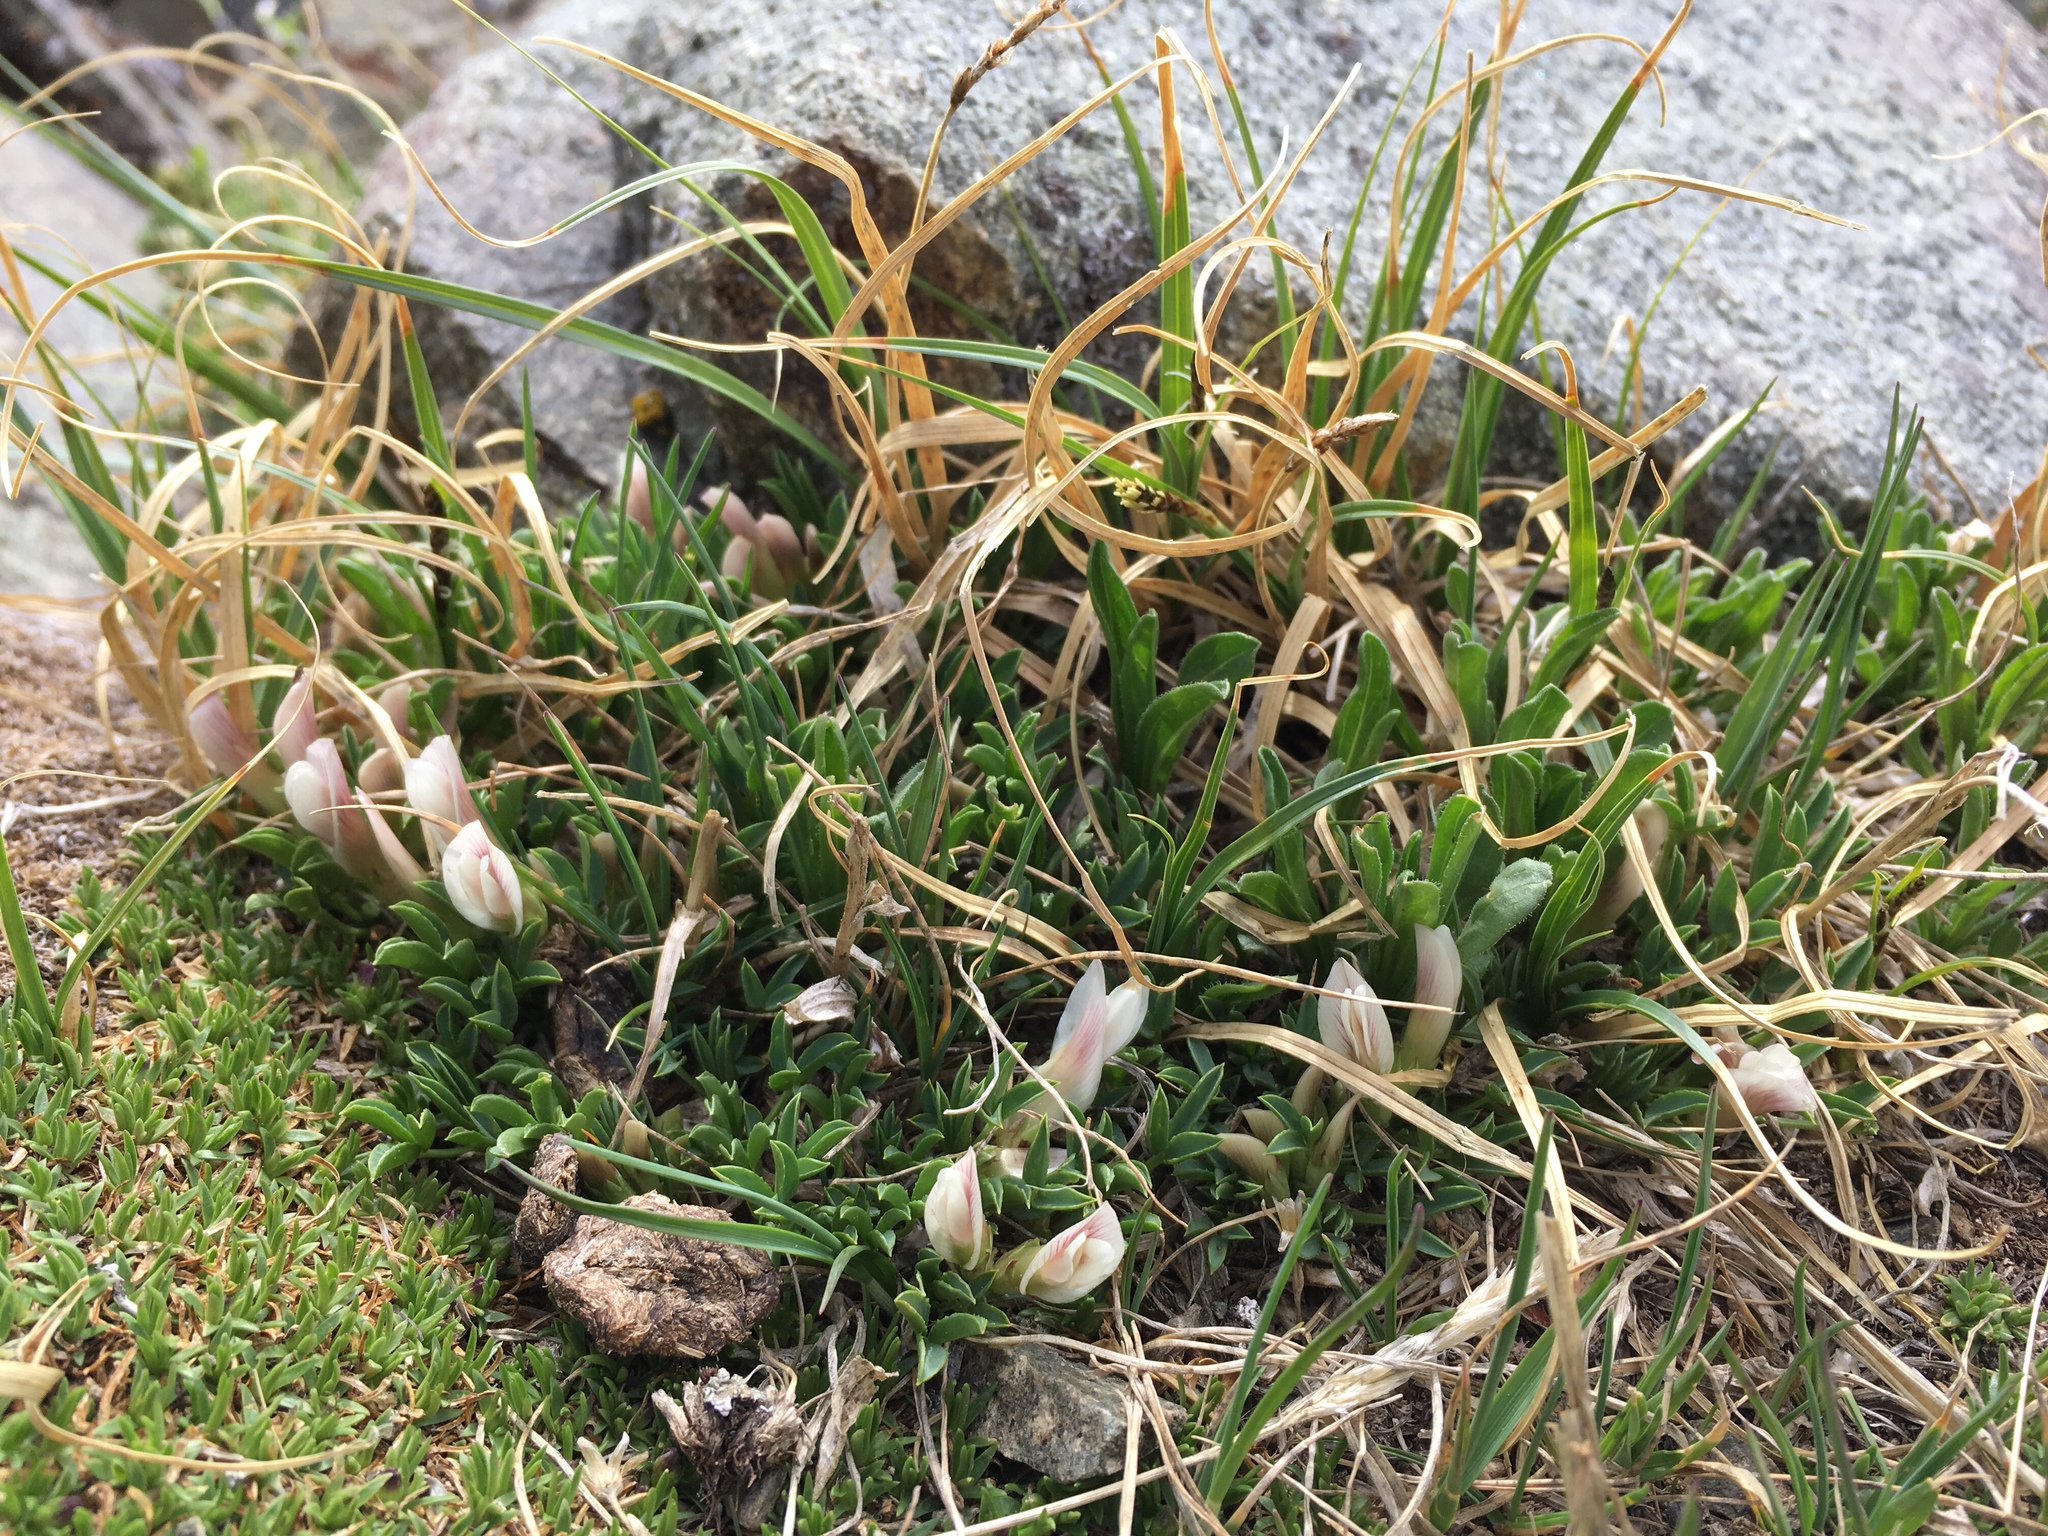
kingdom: Plantae
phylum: Tracheophyta
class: Magnoliopsida
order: Fabales
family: Fabaceae
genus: Trifolium
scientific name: Trifolium nanum
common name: Tundra clover
